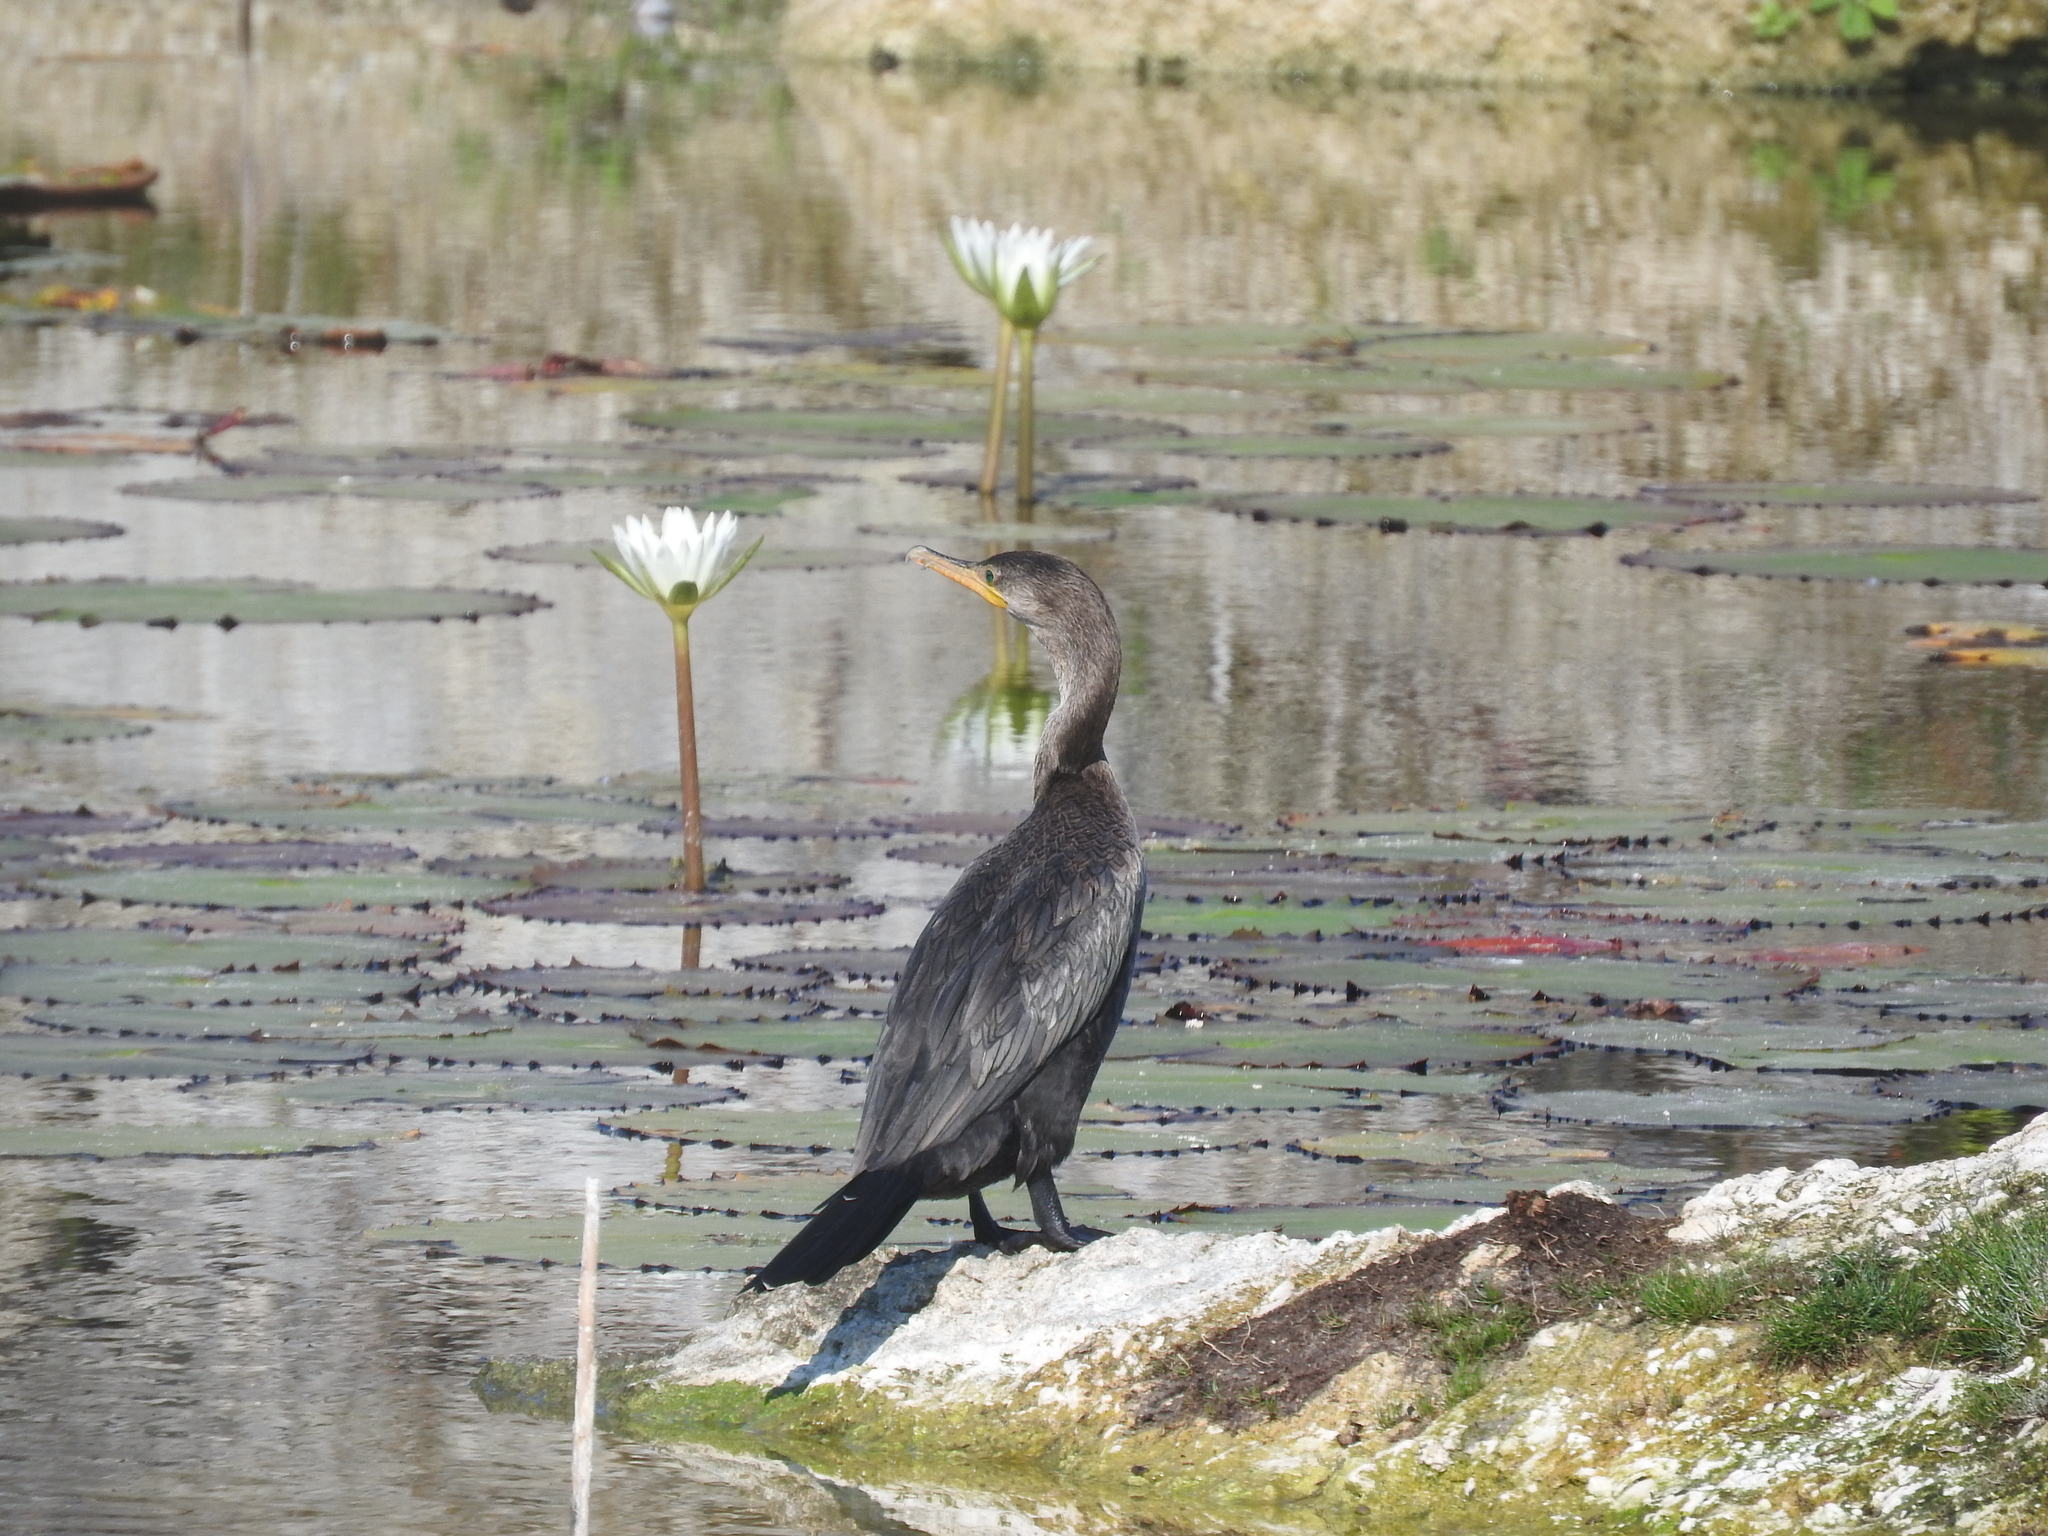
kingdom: Animalia
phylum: Chordata
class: Aves
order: Suliformes
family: Phalacrocoracidae
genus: Phalacrocorax
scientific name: Phalacrocorax brasilianus
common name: Neotropic cormorant
